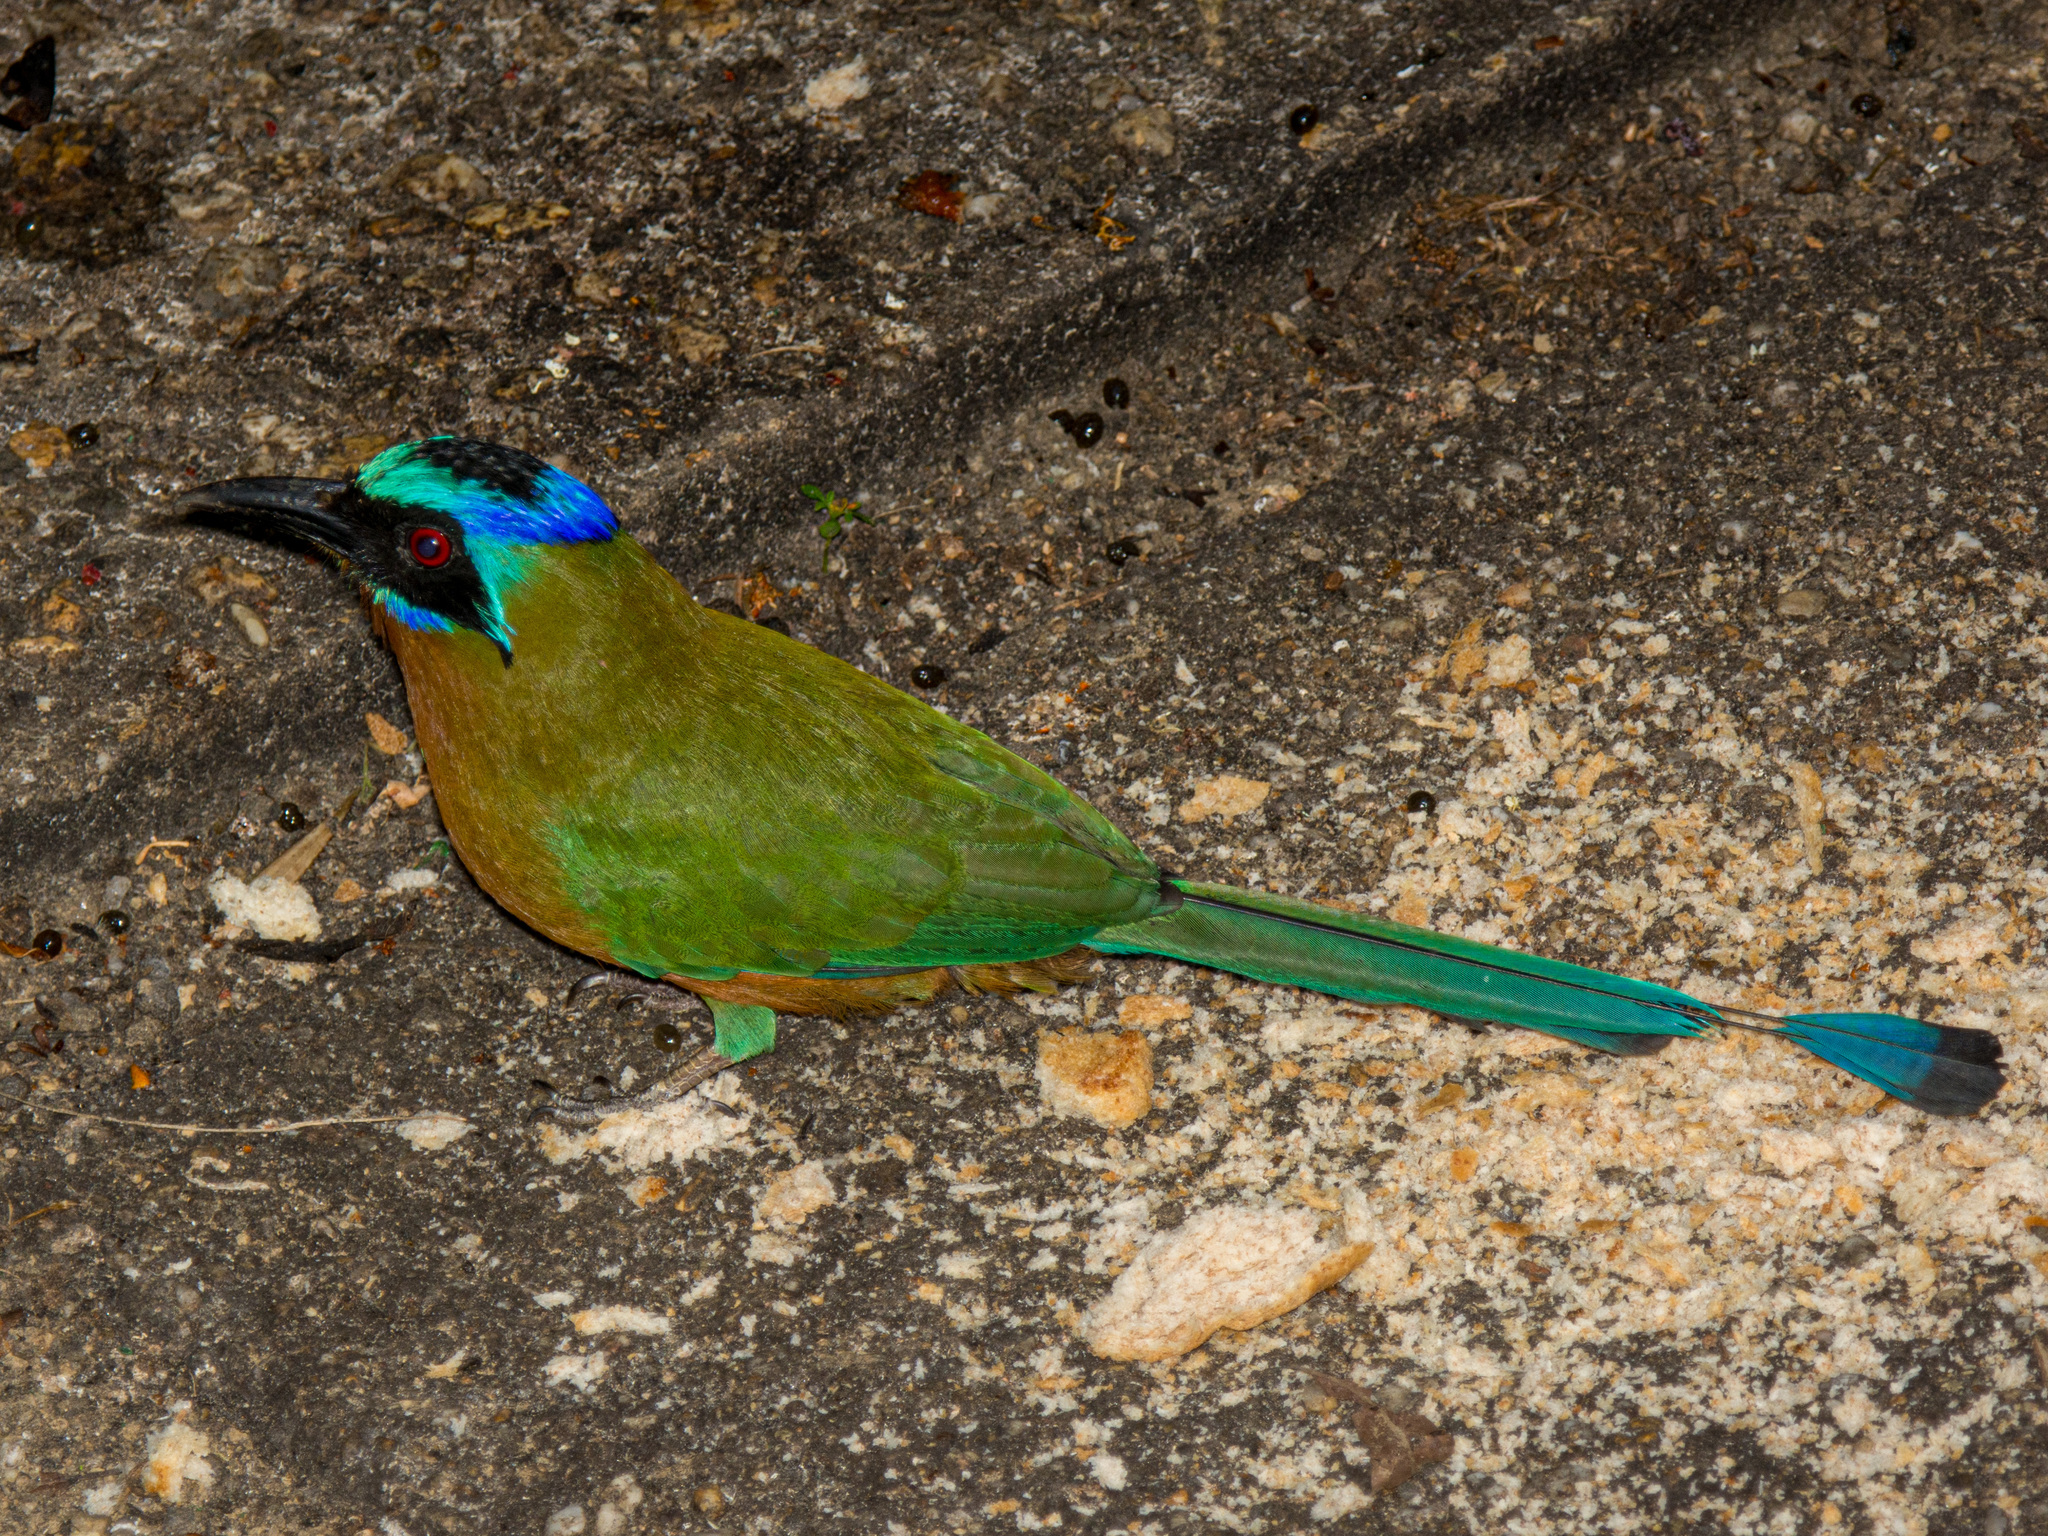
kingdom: Animalia
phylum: Chordata
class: Aves
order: Coraciiformes
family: Momotidae
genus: Momotus
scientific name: Momotus bahamensis
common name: Trinidad motmot
